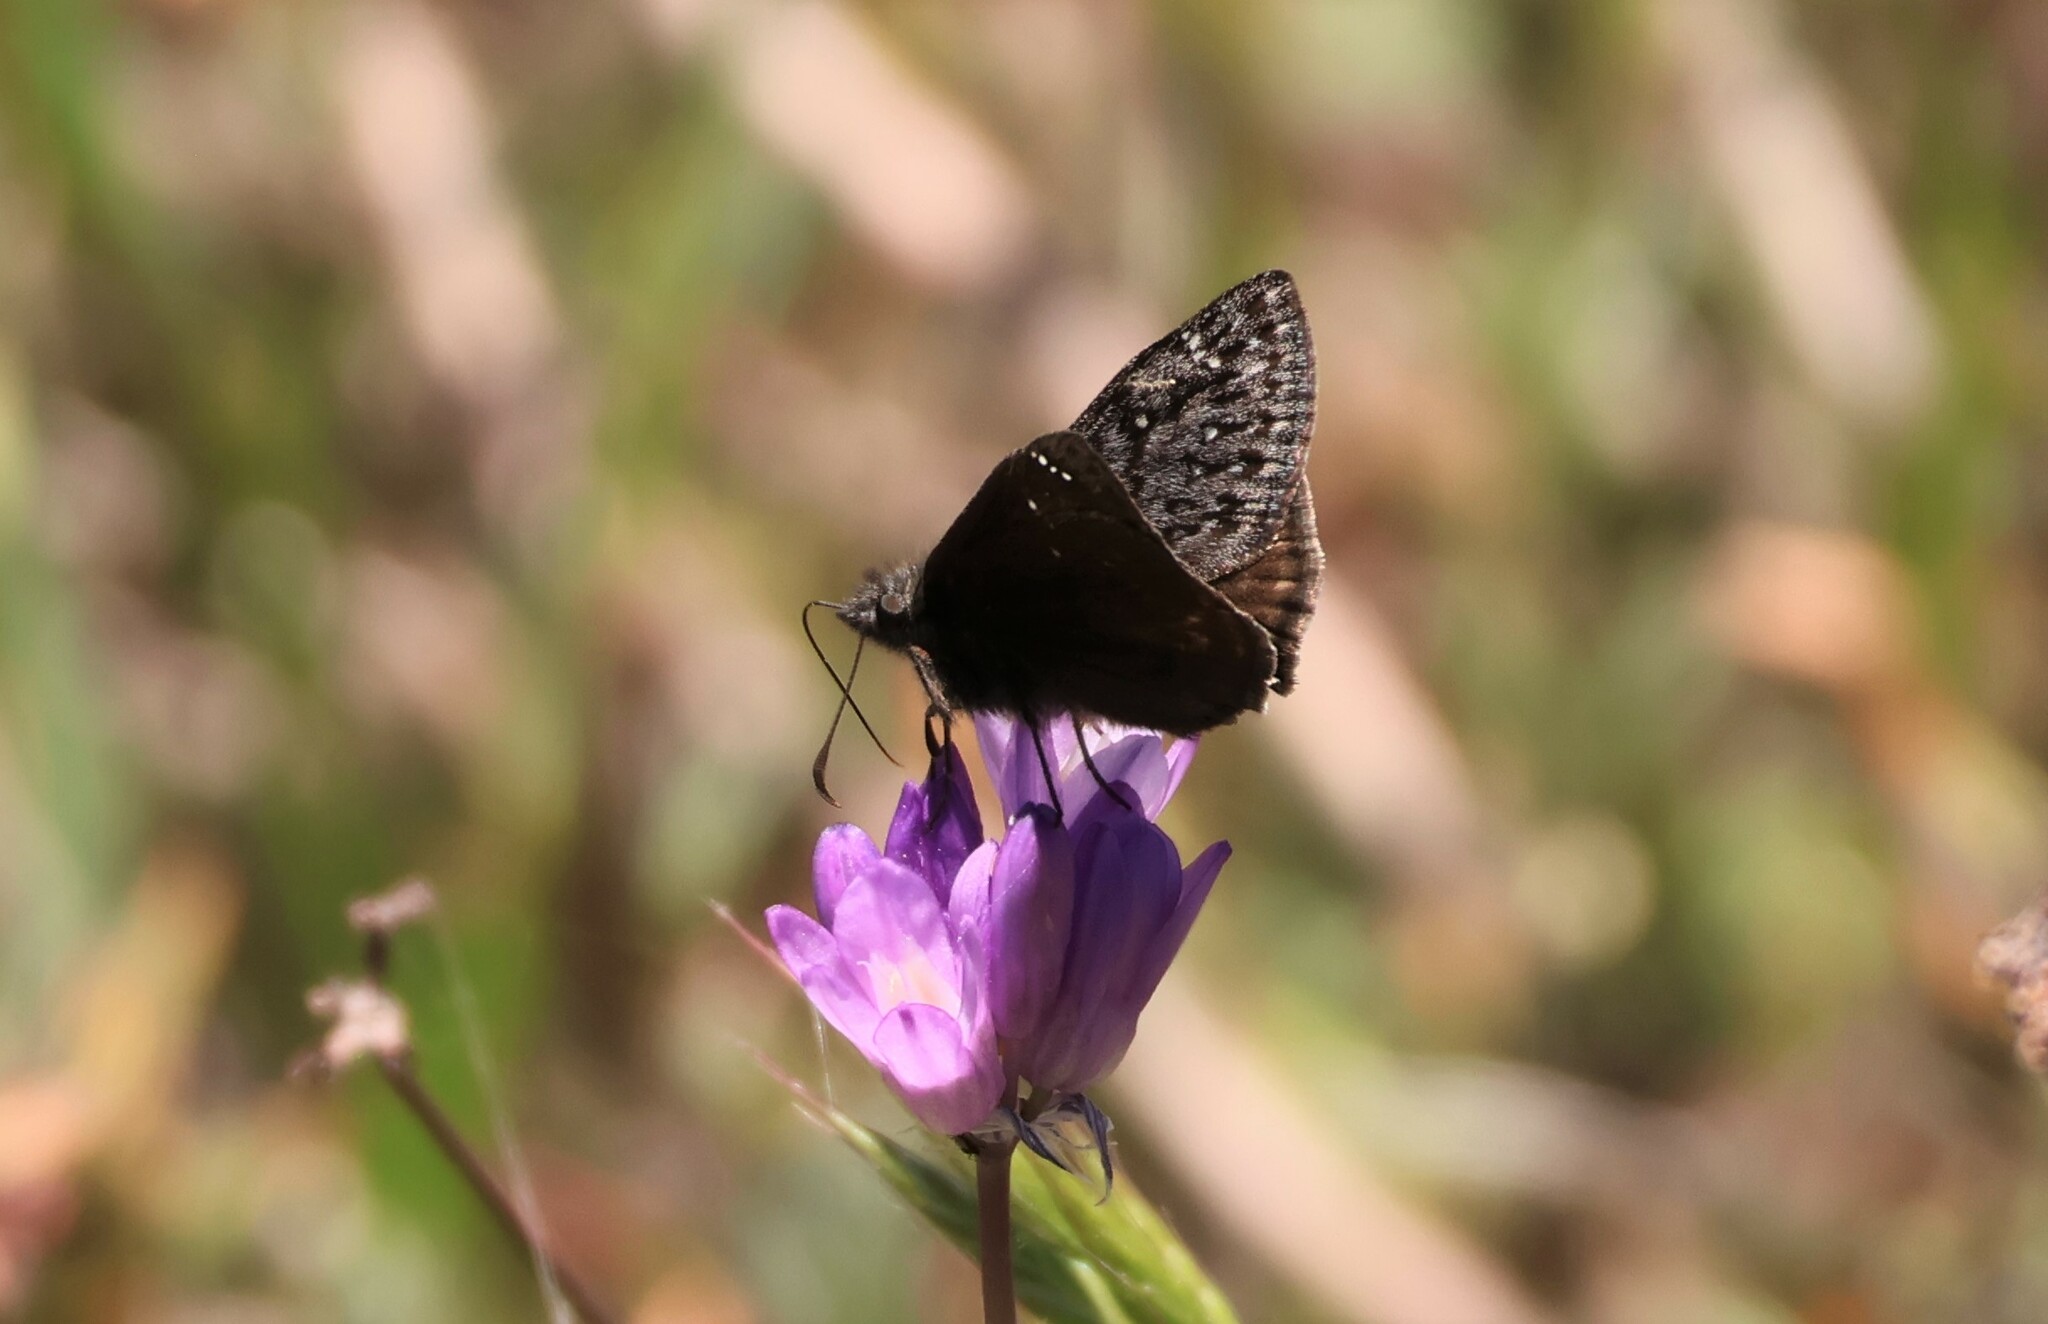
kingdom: Animalia
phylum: Arthropoda
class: Insecta
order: Lepidoptera
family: Hesperiidae
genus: Erynnis
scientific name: Erynnis propertius
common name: Propertius duskywing
